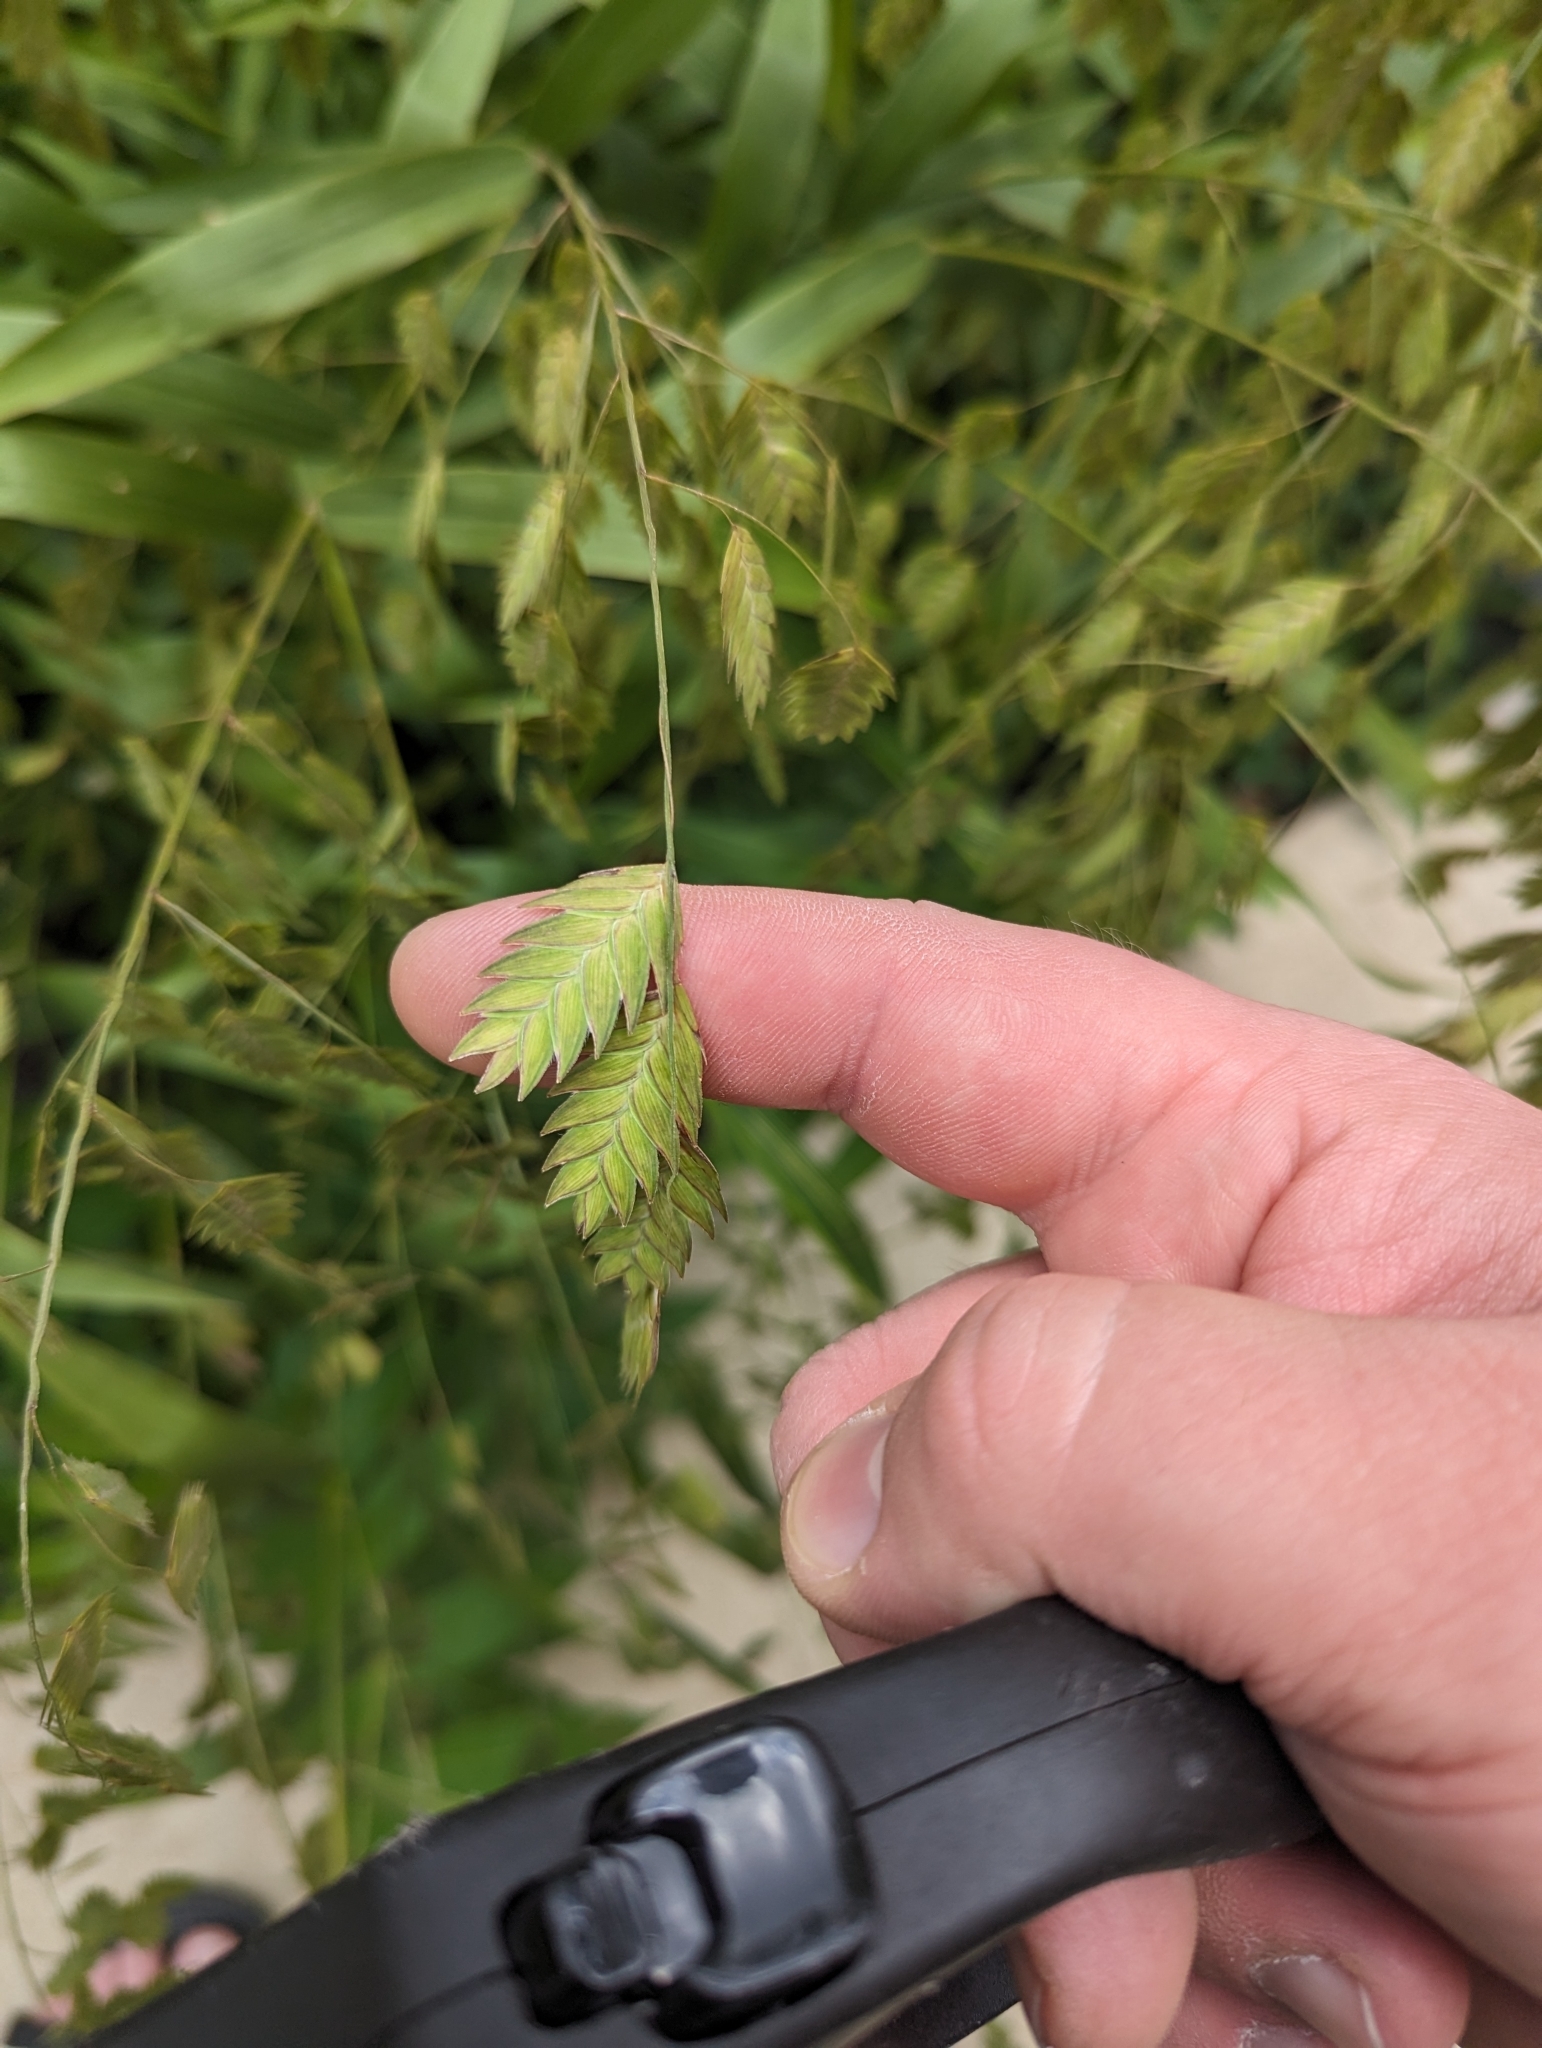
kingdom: Plantae
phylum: Tracheophyta
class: Liliopsida
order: Poales
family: Poaceae
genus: Chasmanthium
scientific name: Chasmanthium latifolium
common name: Broad-leaved chasmanthium
